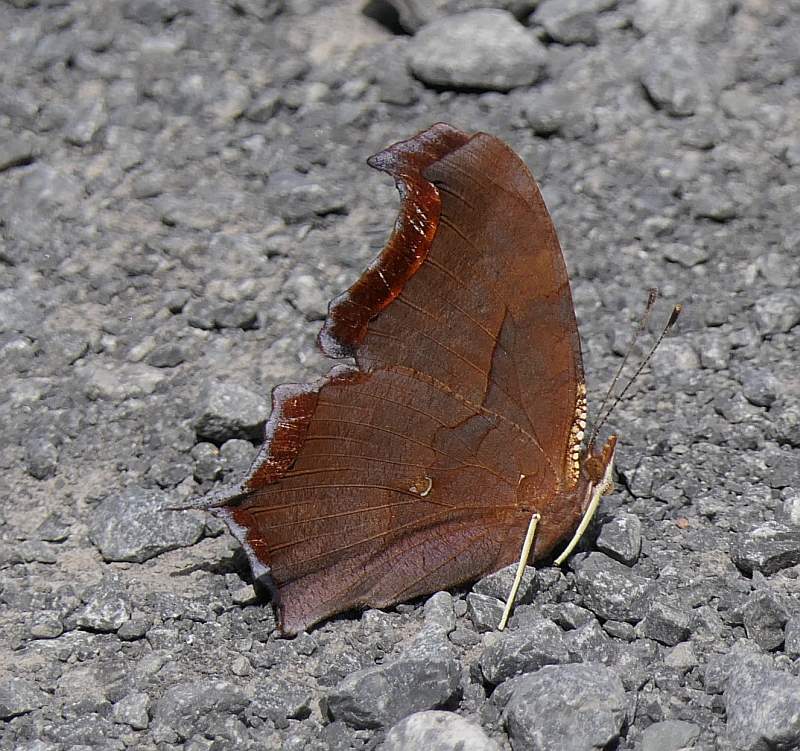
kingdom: Animalia
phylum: Arthropoda
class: Insecta
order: Lepidoptera
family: Nymphalidae
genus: Polygonia
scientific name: Polygonia interrogationis
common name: Question mark
